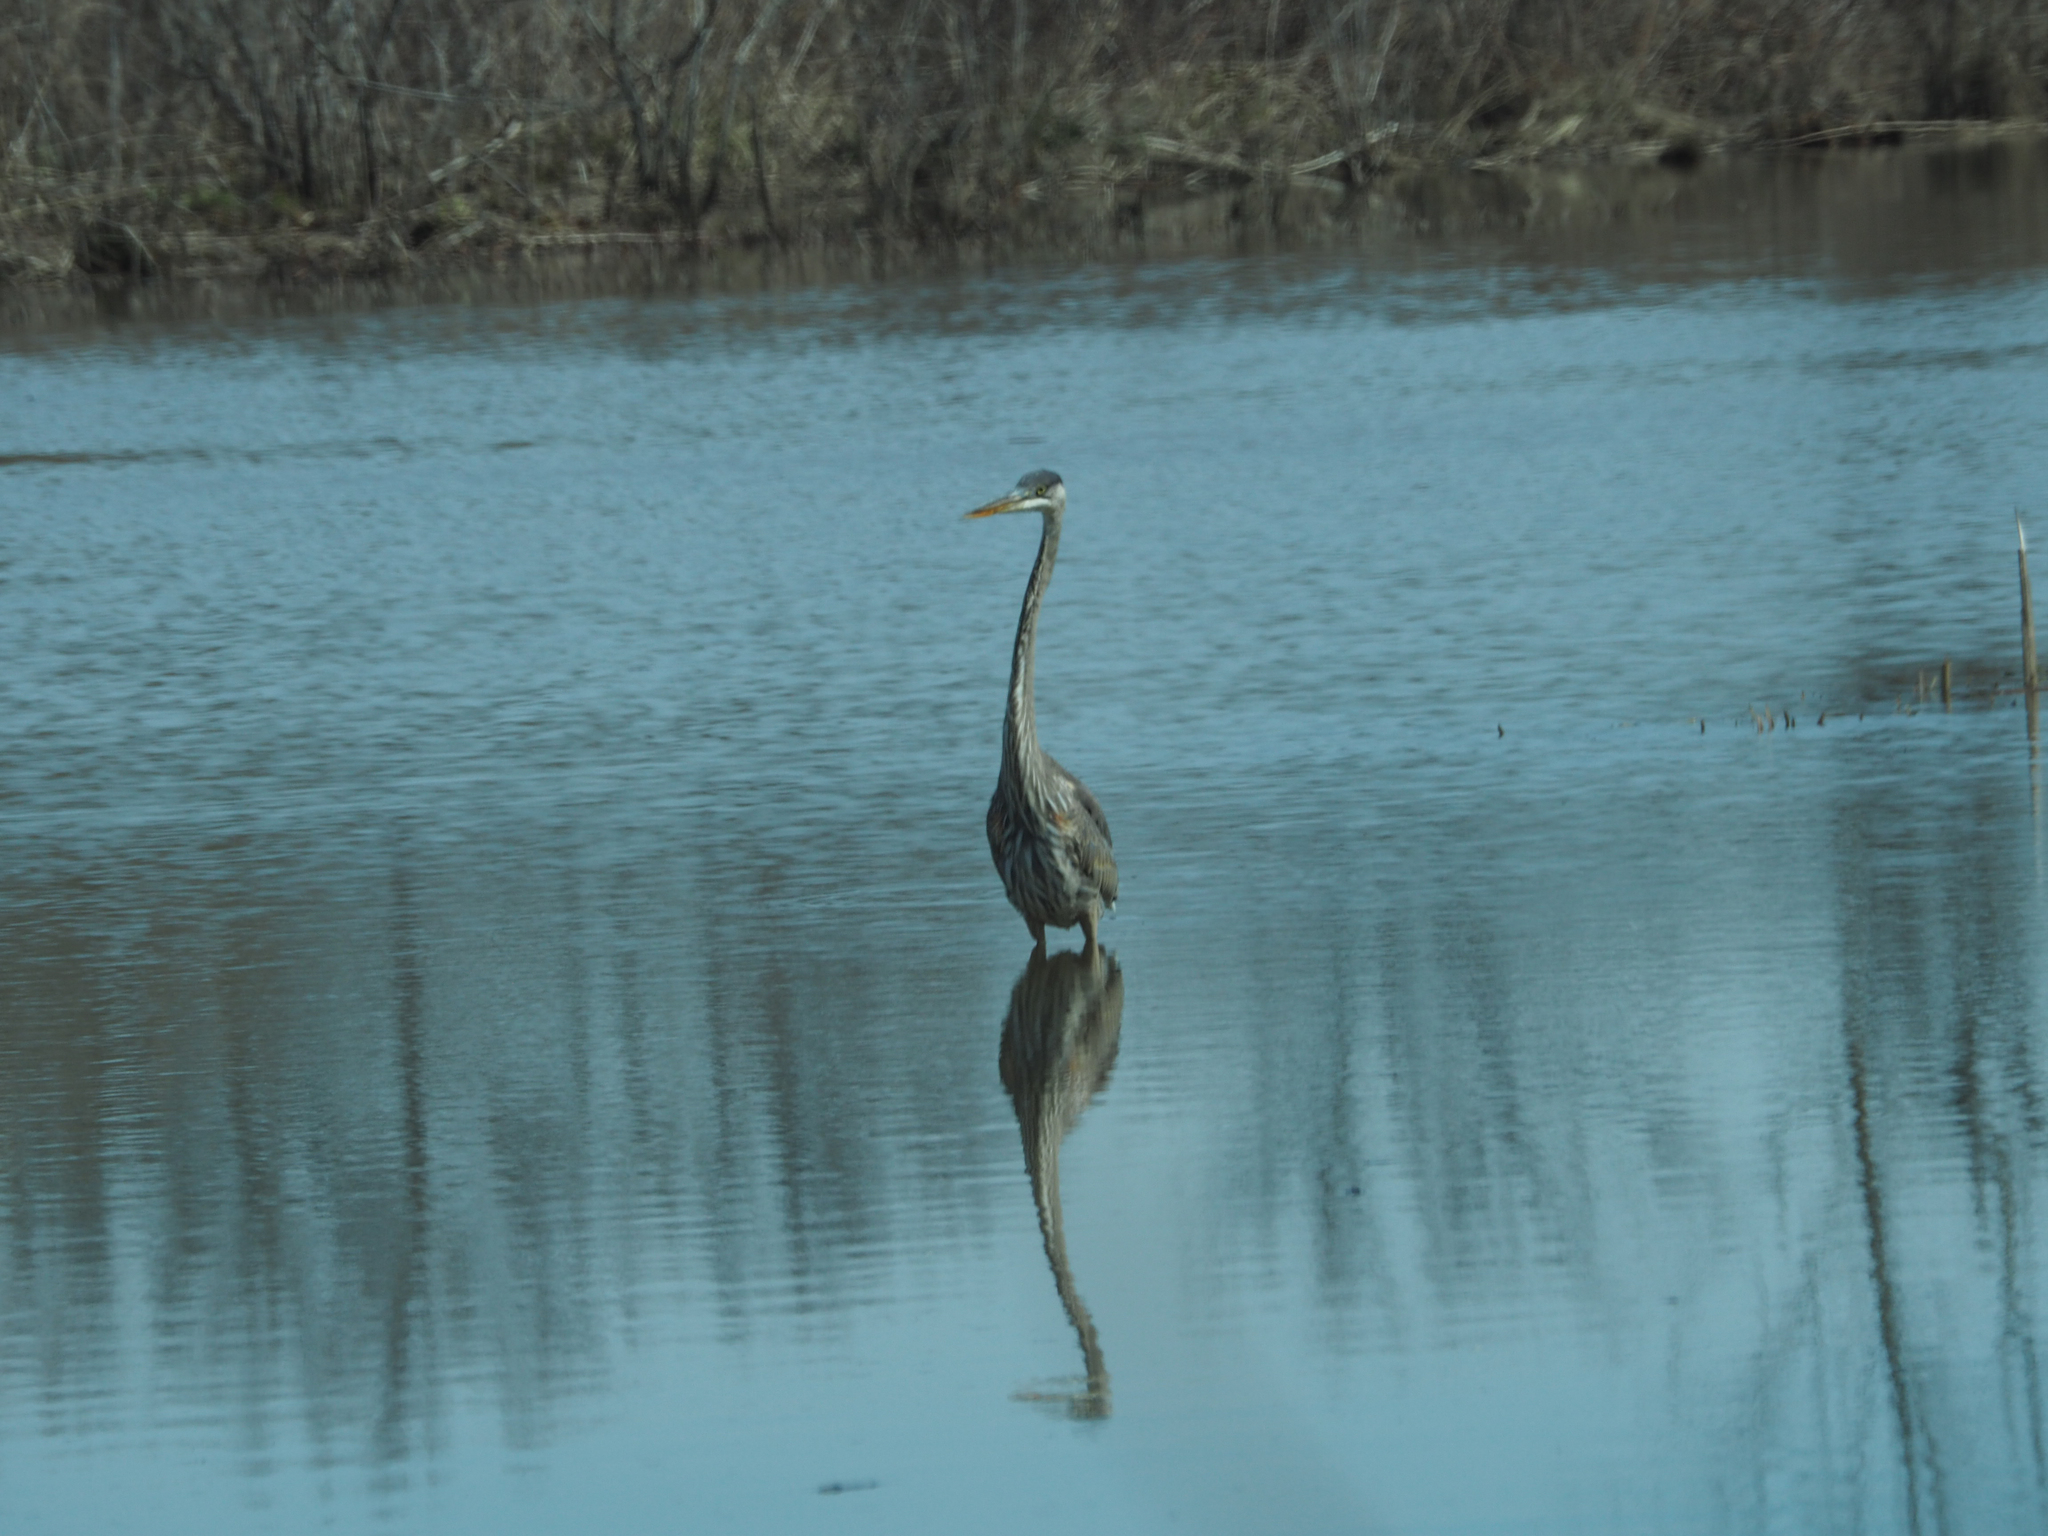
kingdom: Animalia
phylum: Chordata
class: Aves
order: Pelecaniformes
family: Ardeidae
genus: Ardea
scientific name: Ardea herodias
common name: Great blue heron
